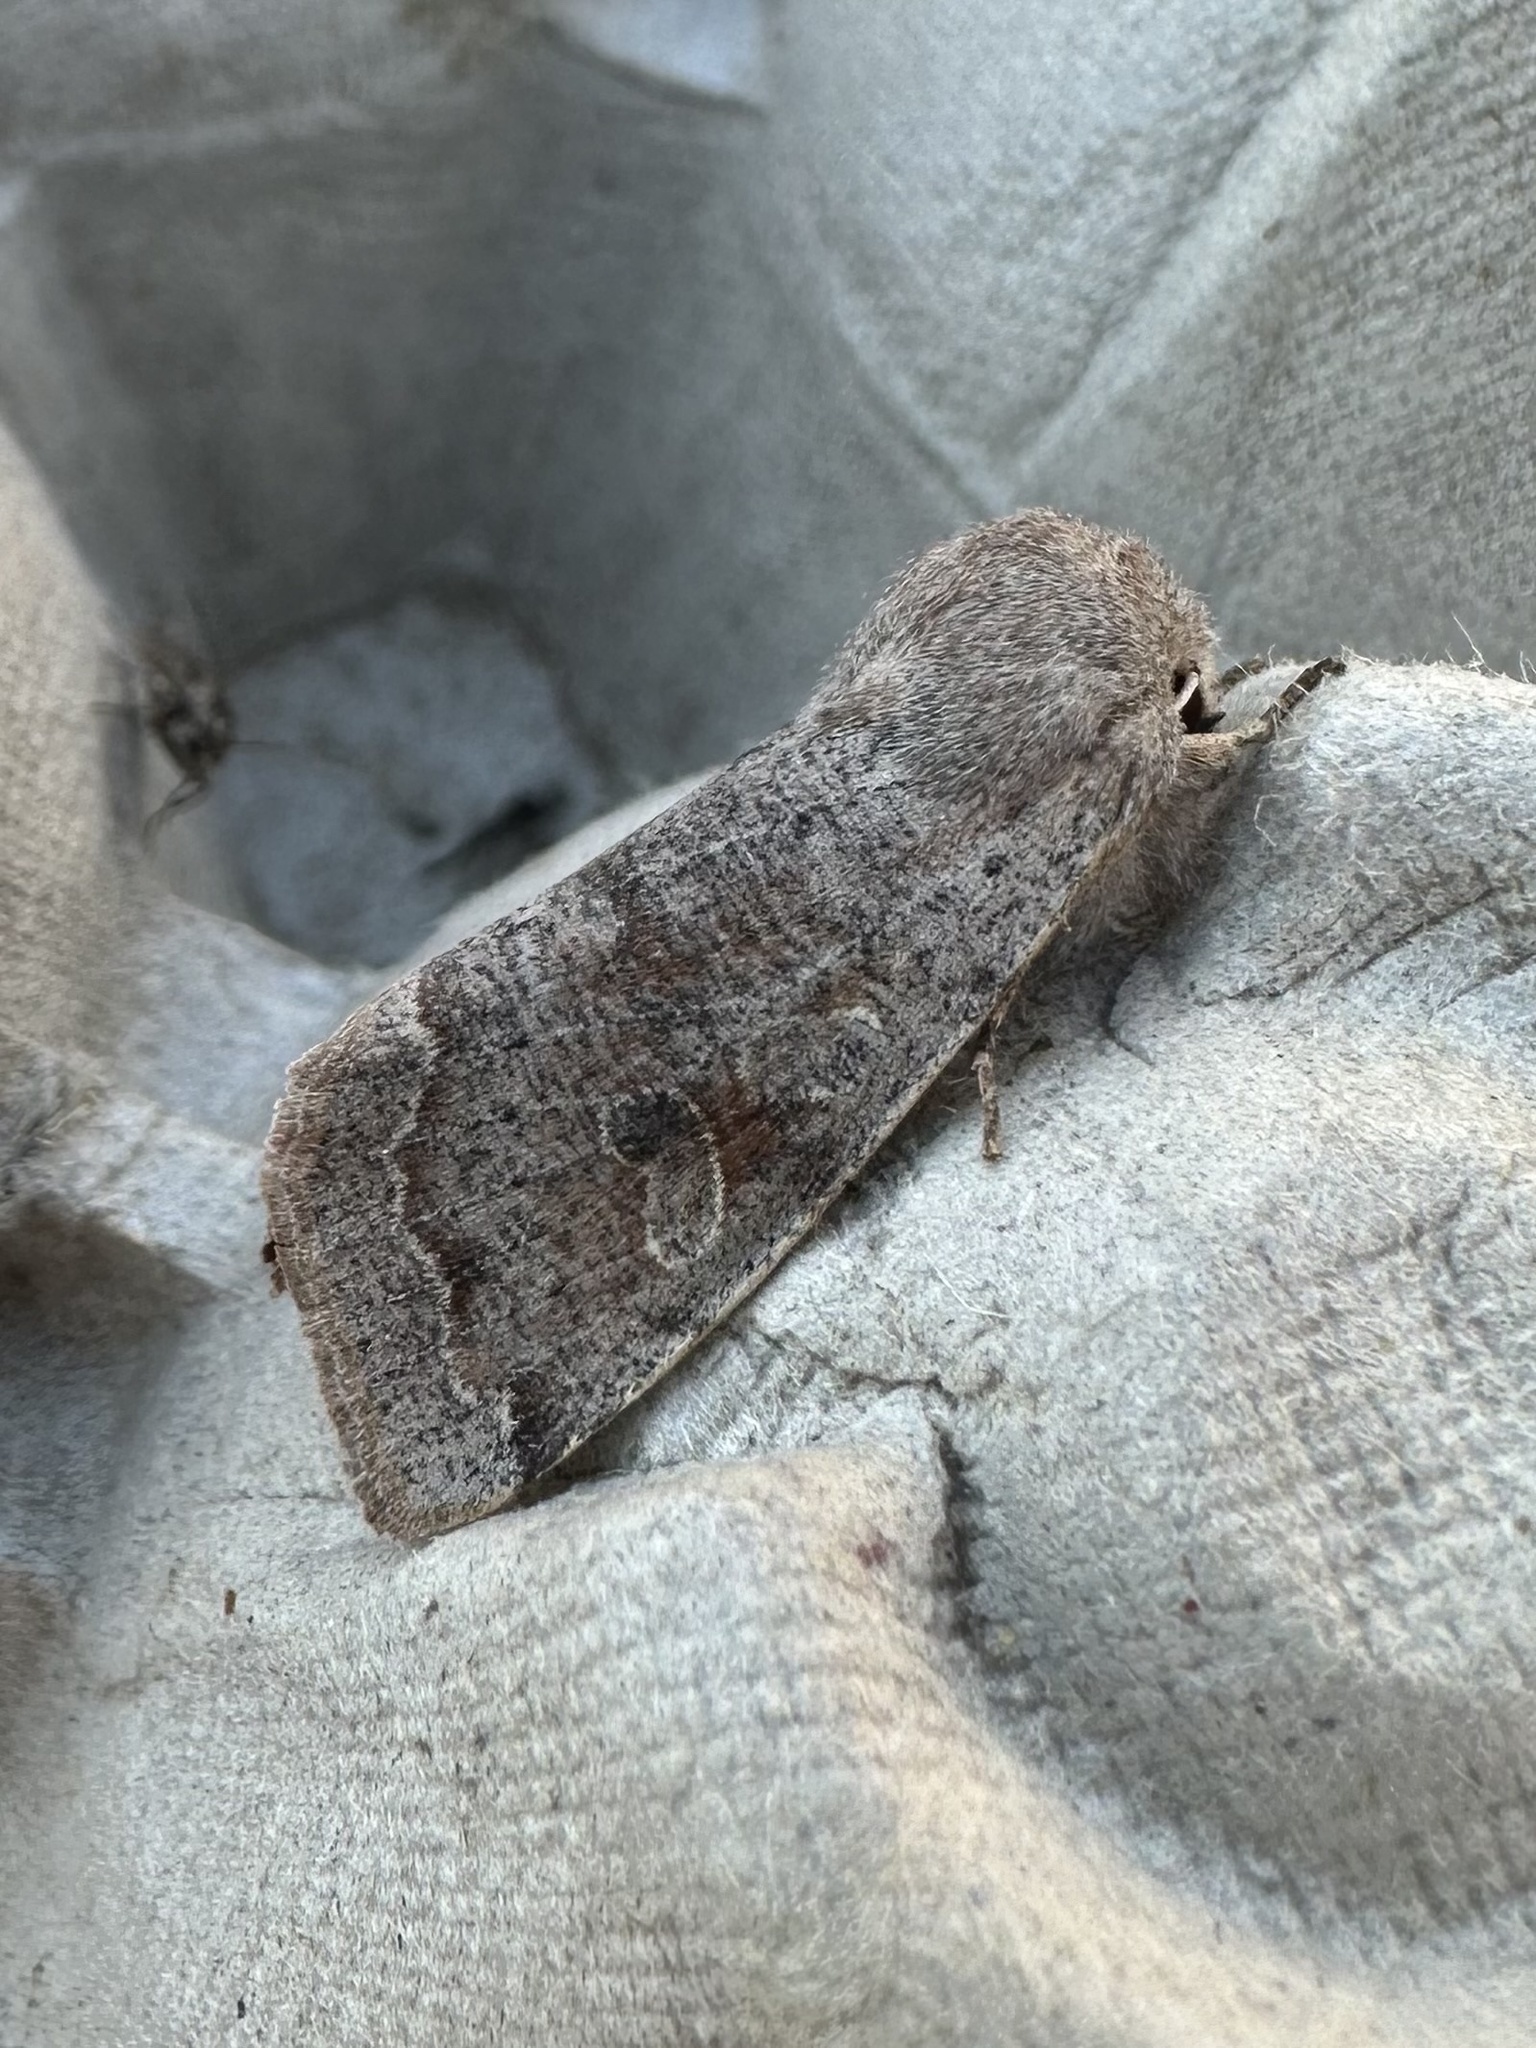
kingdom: Animalia
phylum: Arthropoda
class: Insecta
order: Lepidoptera
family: Noctuidae
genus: Orthosia
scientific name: Orthosia hibisci
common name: Green fruitworm
